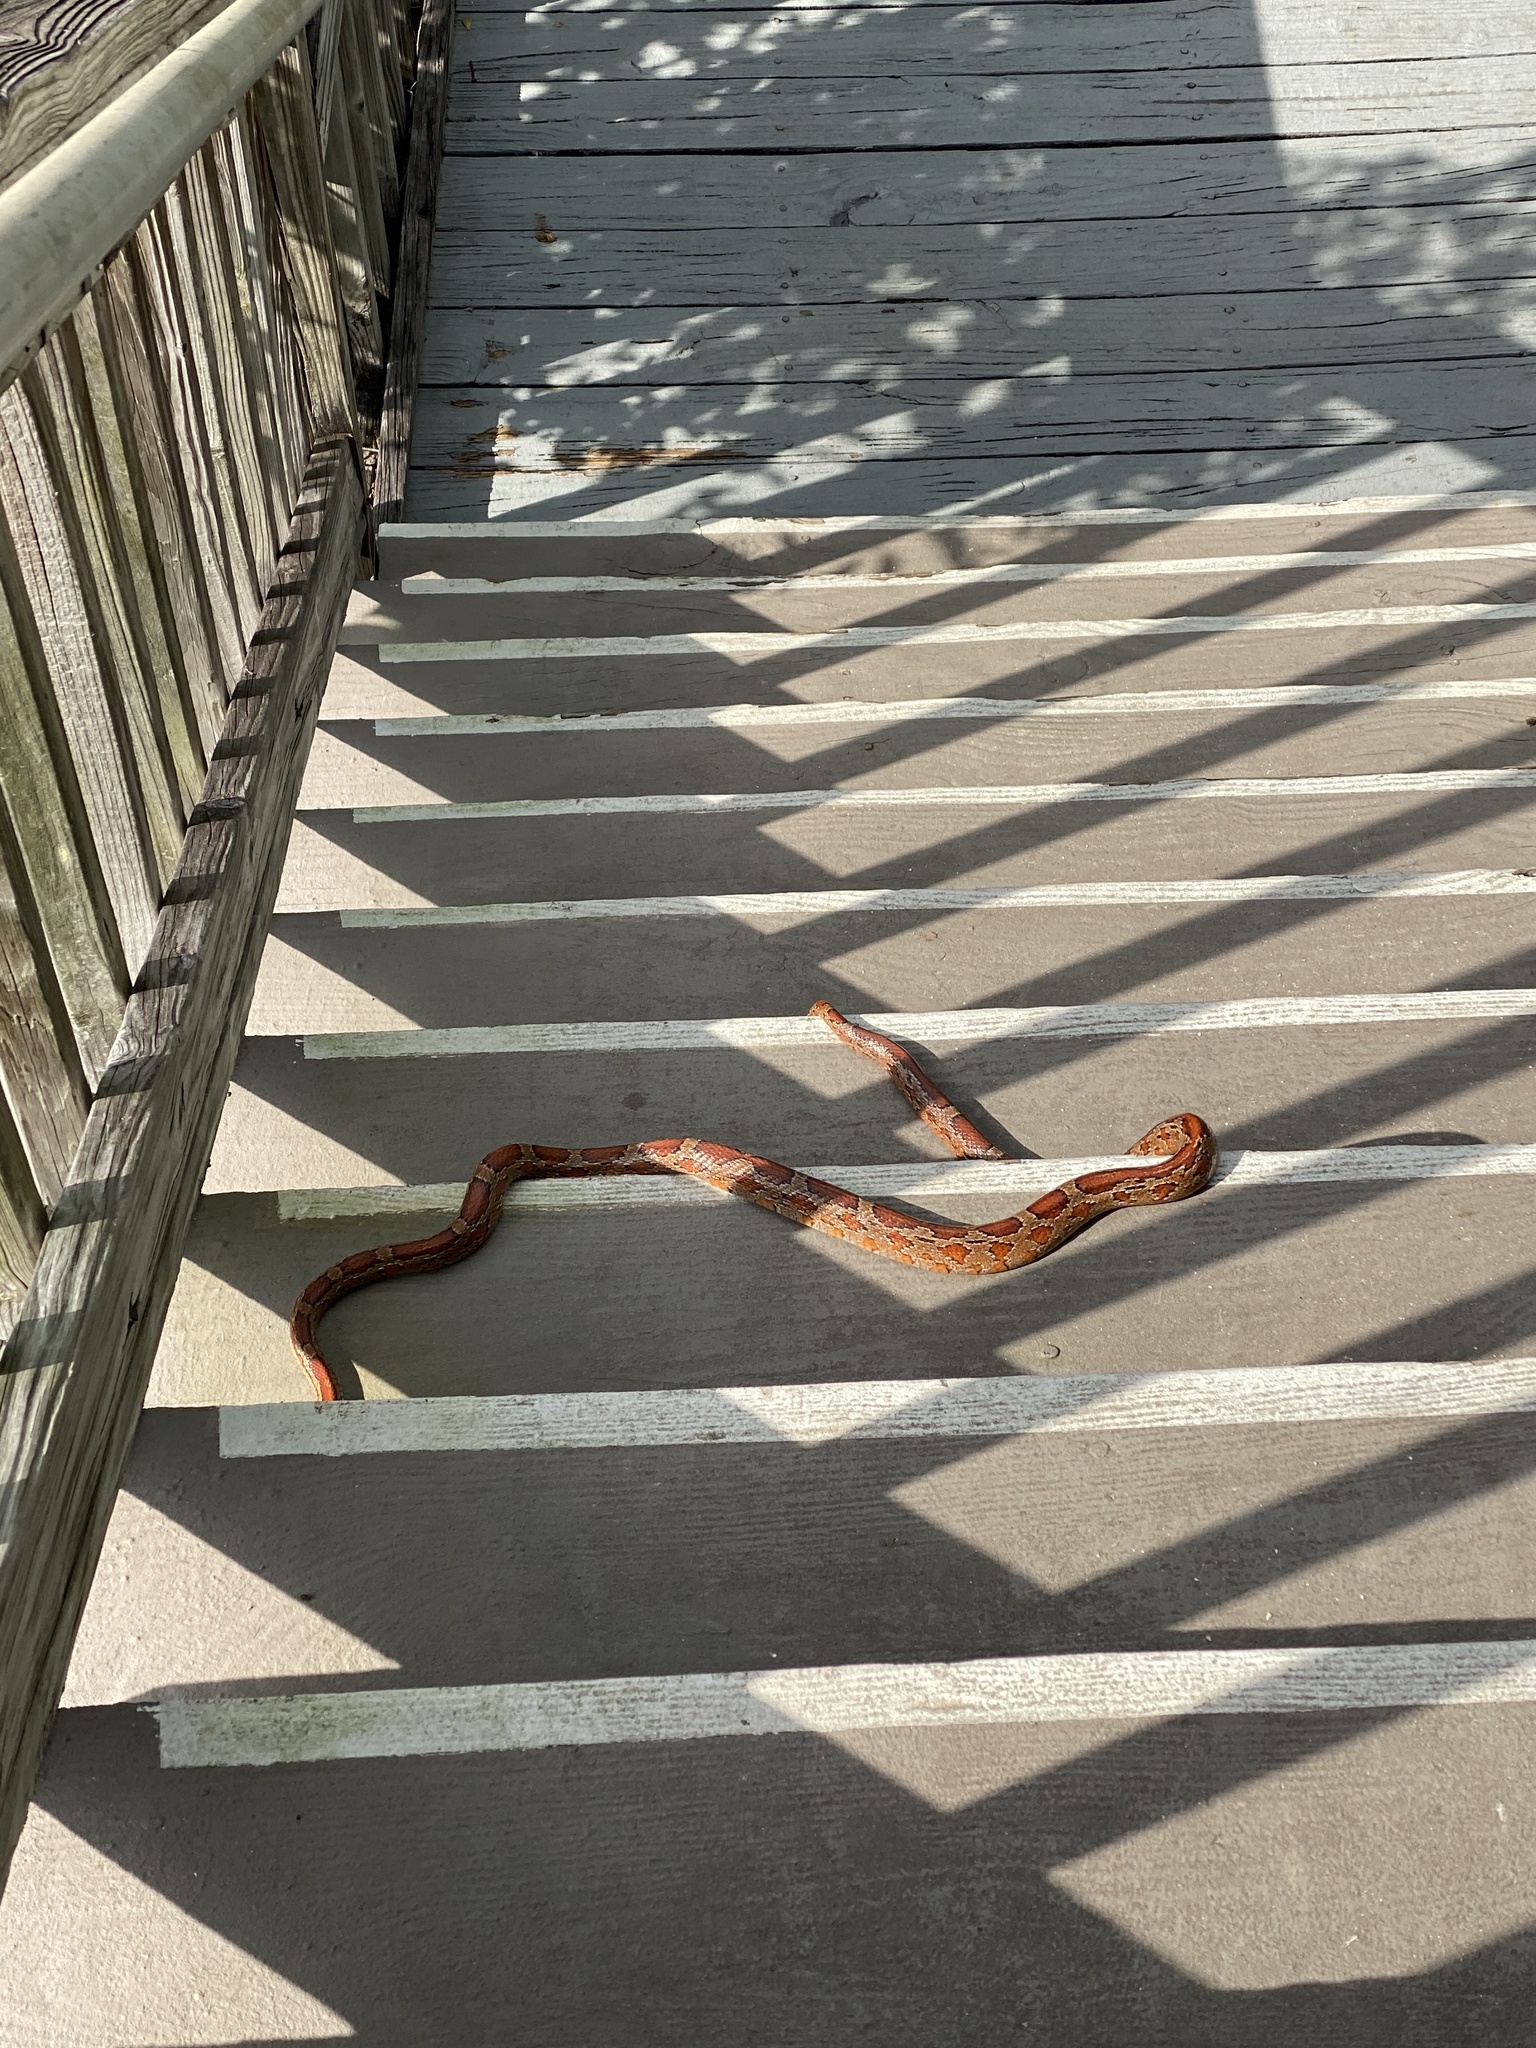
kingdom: Animalia
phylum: Chordata
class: Squamata
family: Colubridae
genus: Pantherophis
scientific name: Pantherophis guttatus
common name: Red cornsnake
